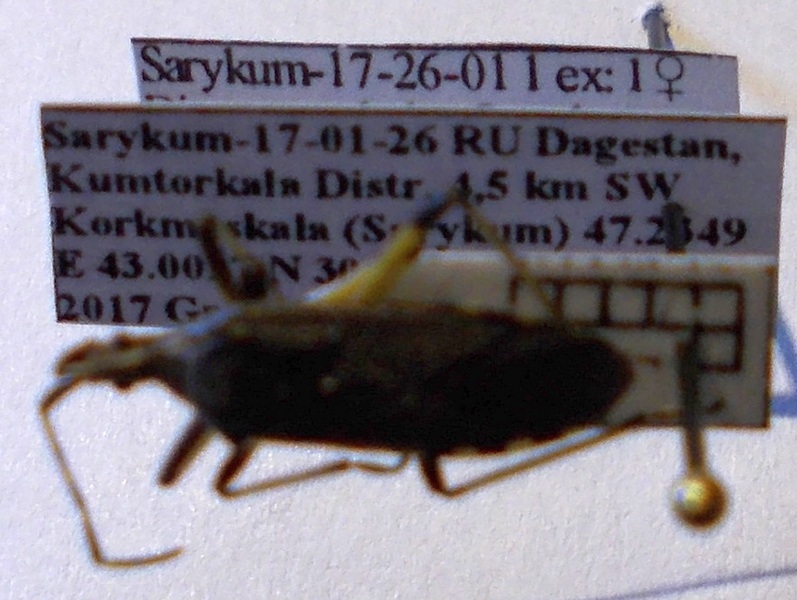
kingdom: Animalia
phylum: Arthropoda
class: Insecta
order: Hemiptera
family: Stenocephalidae
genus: Dicranocephalus
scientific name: Dicranocephalus setulosus
